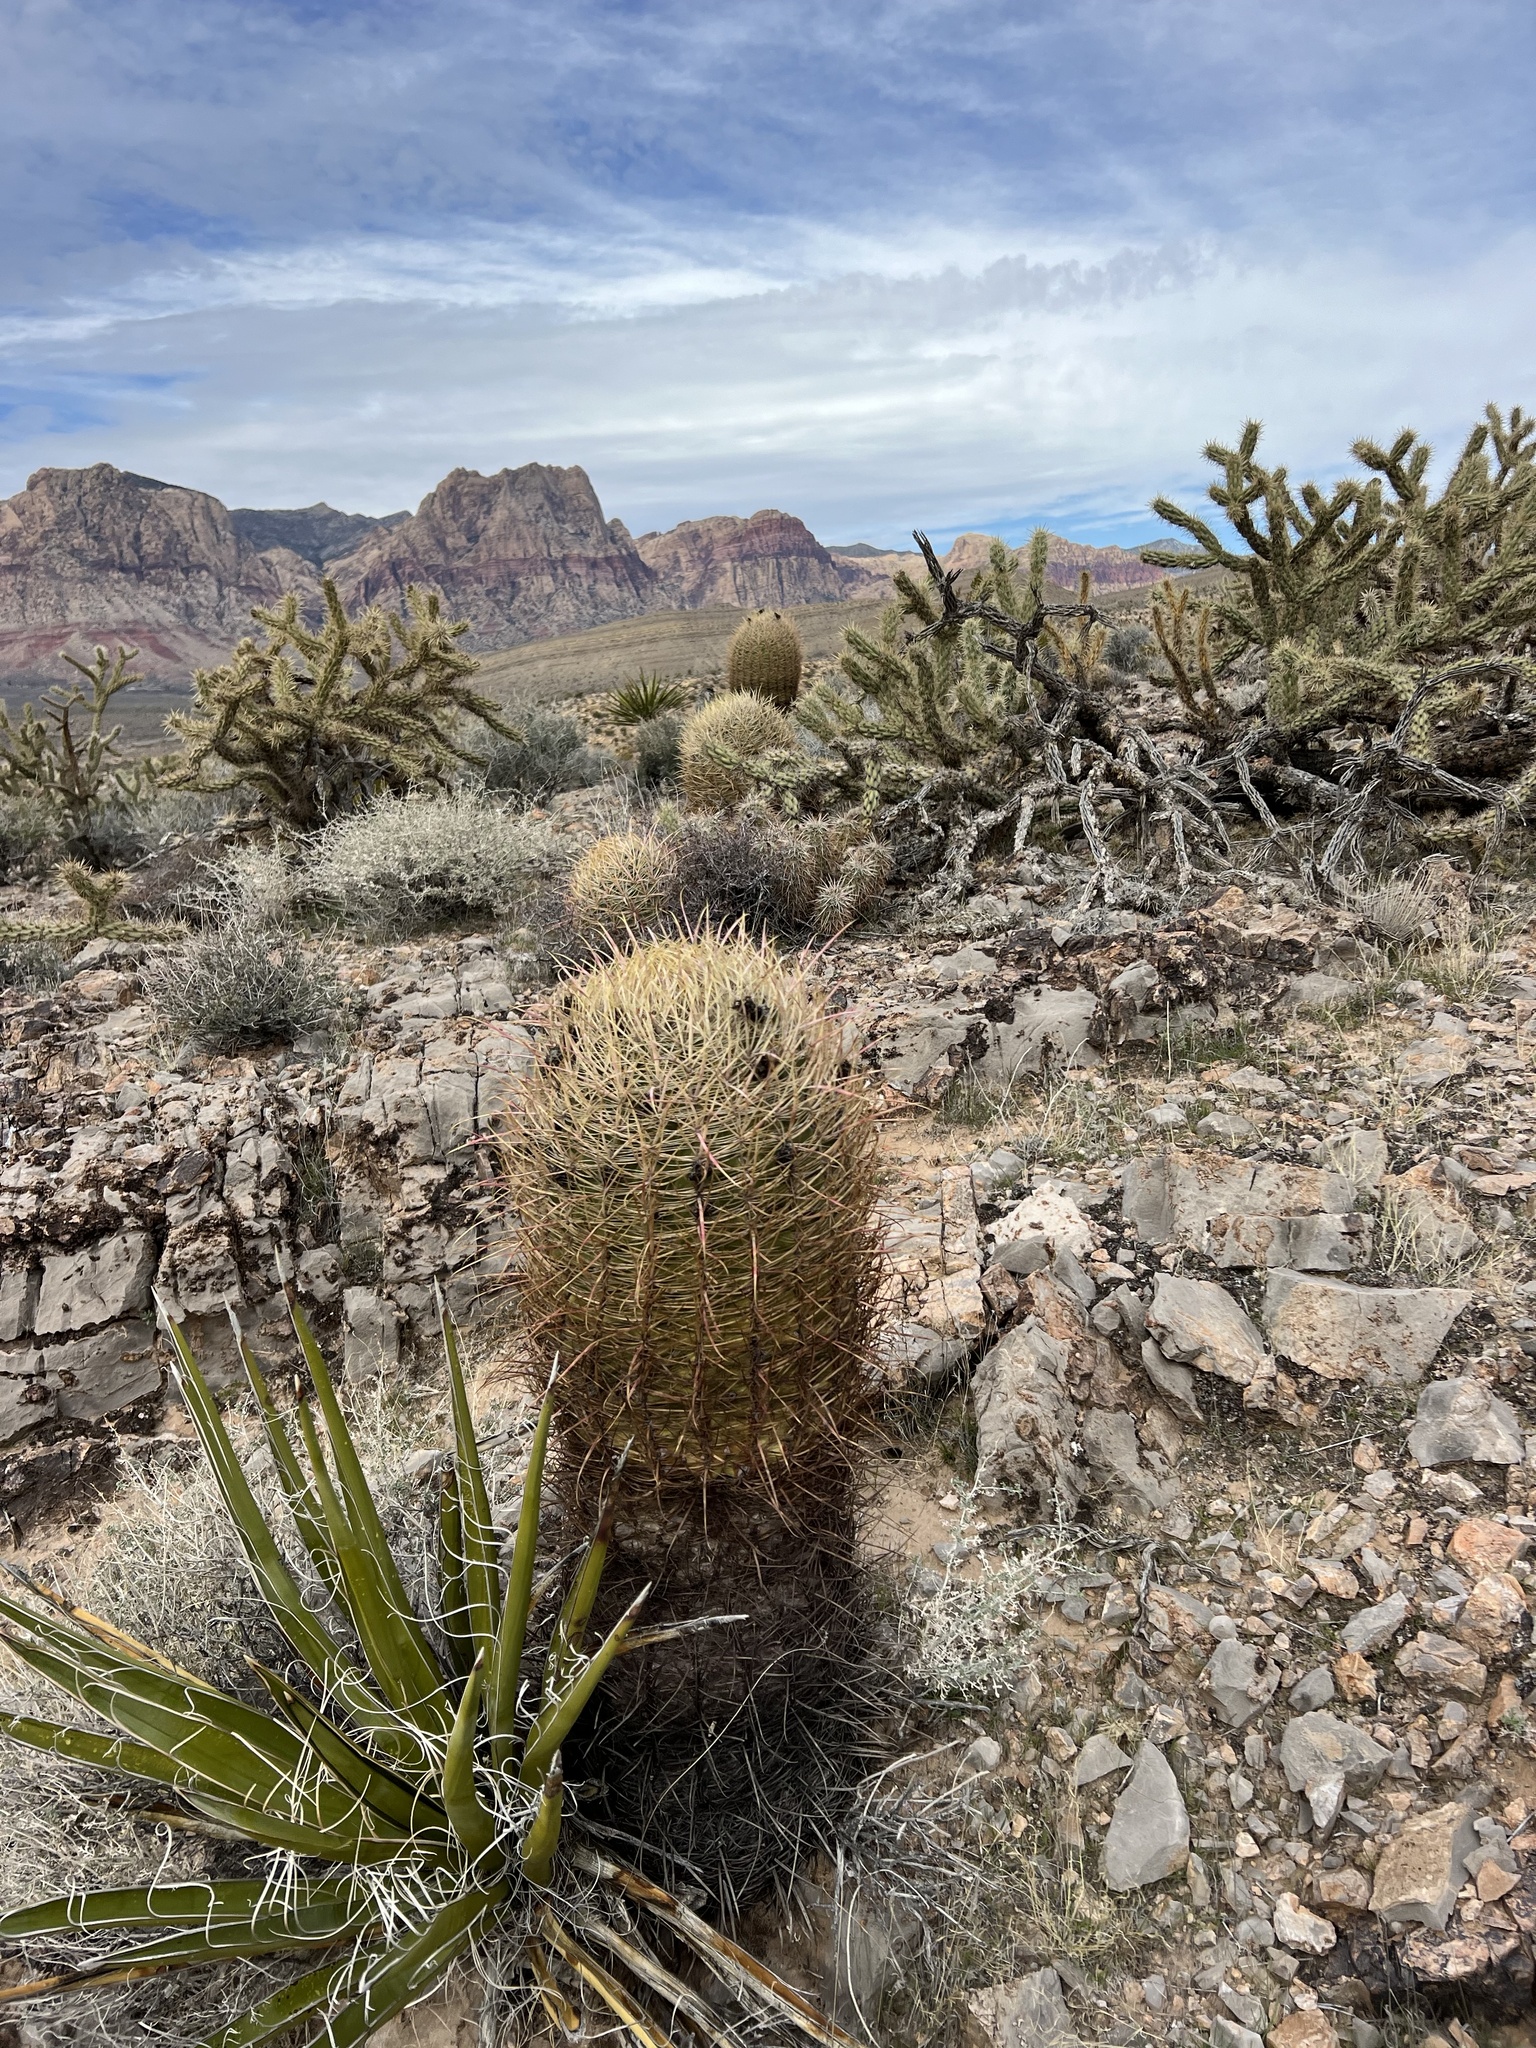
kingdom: Plantae
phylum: Tracheophyta
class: Magnoliopsida
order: Caryophyllales
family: Cactaceae
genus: Ferocactus
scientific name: Ferocactus cylindraceus
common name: California barrel cactus
